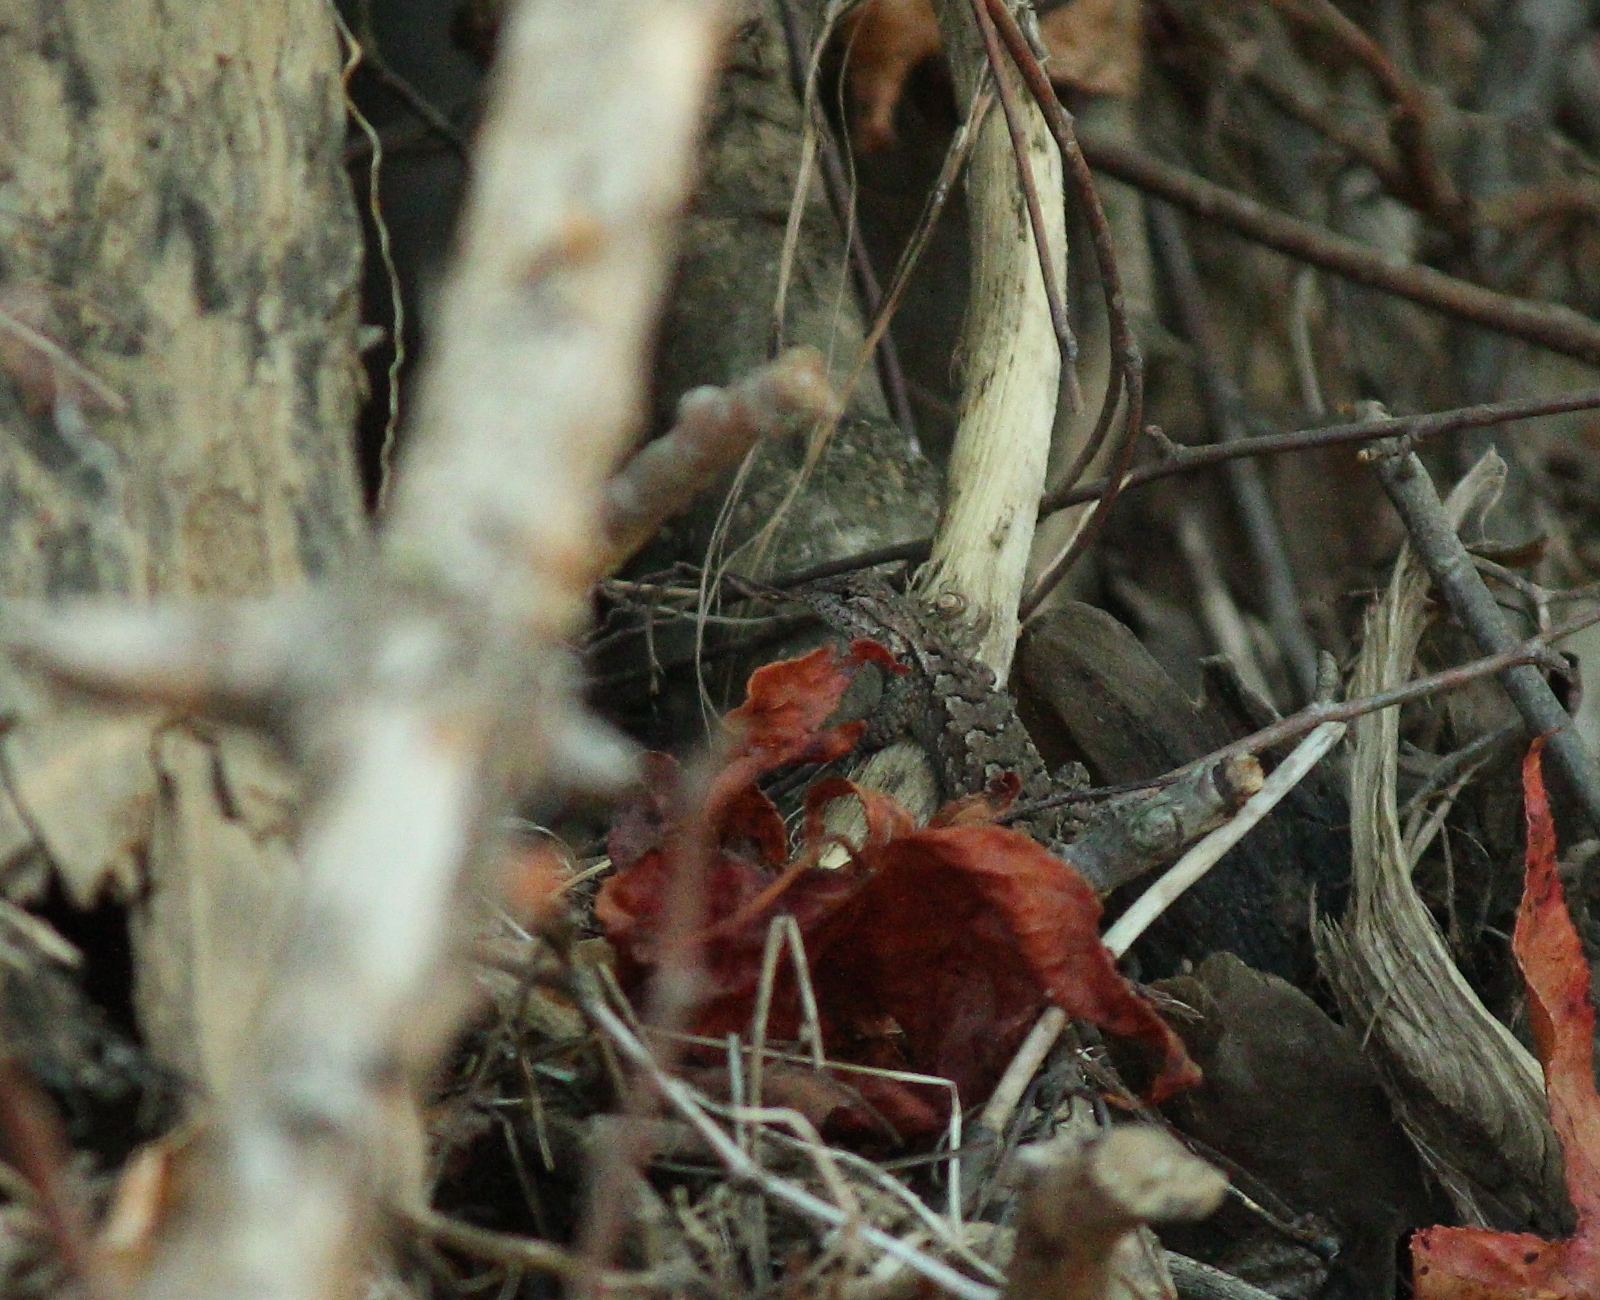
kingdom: Animalia
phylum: Chordata
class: Squamata
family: Phrynosomatidae
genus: Sceloporus
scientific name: Sceloporus consobrinus
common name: Southern prairie lizard
